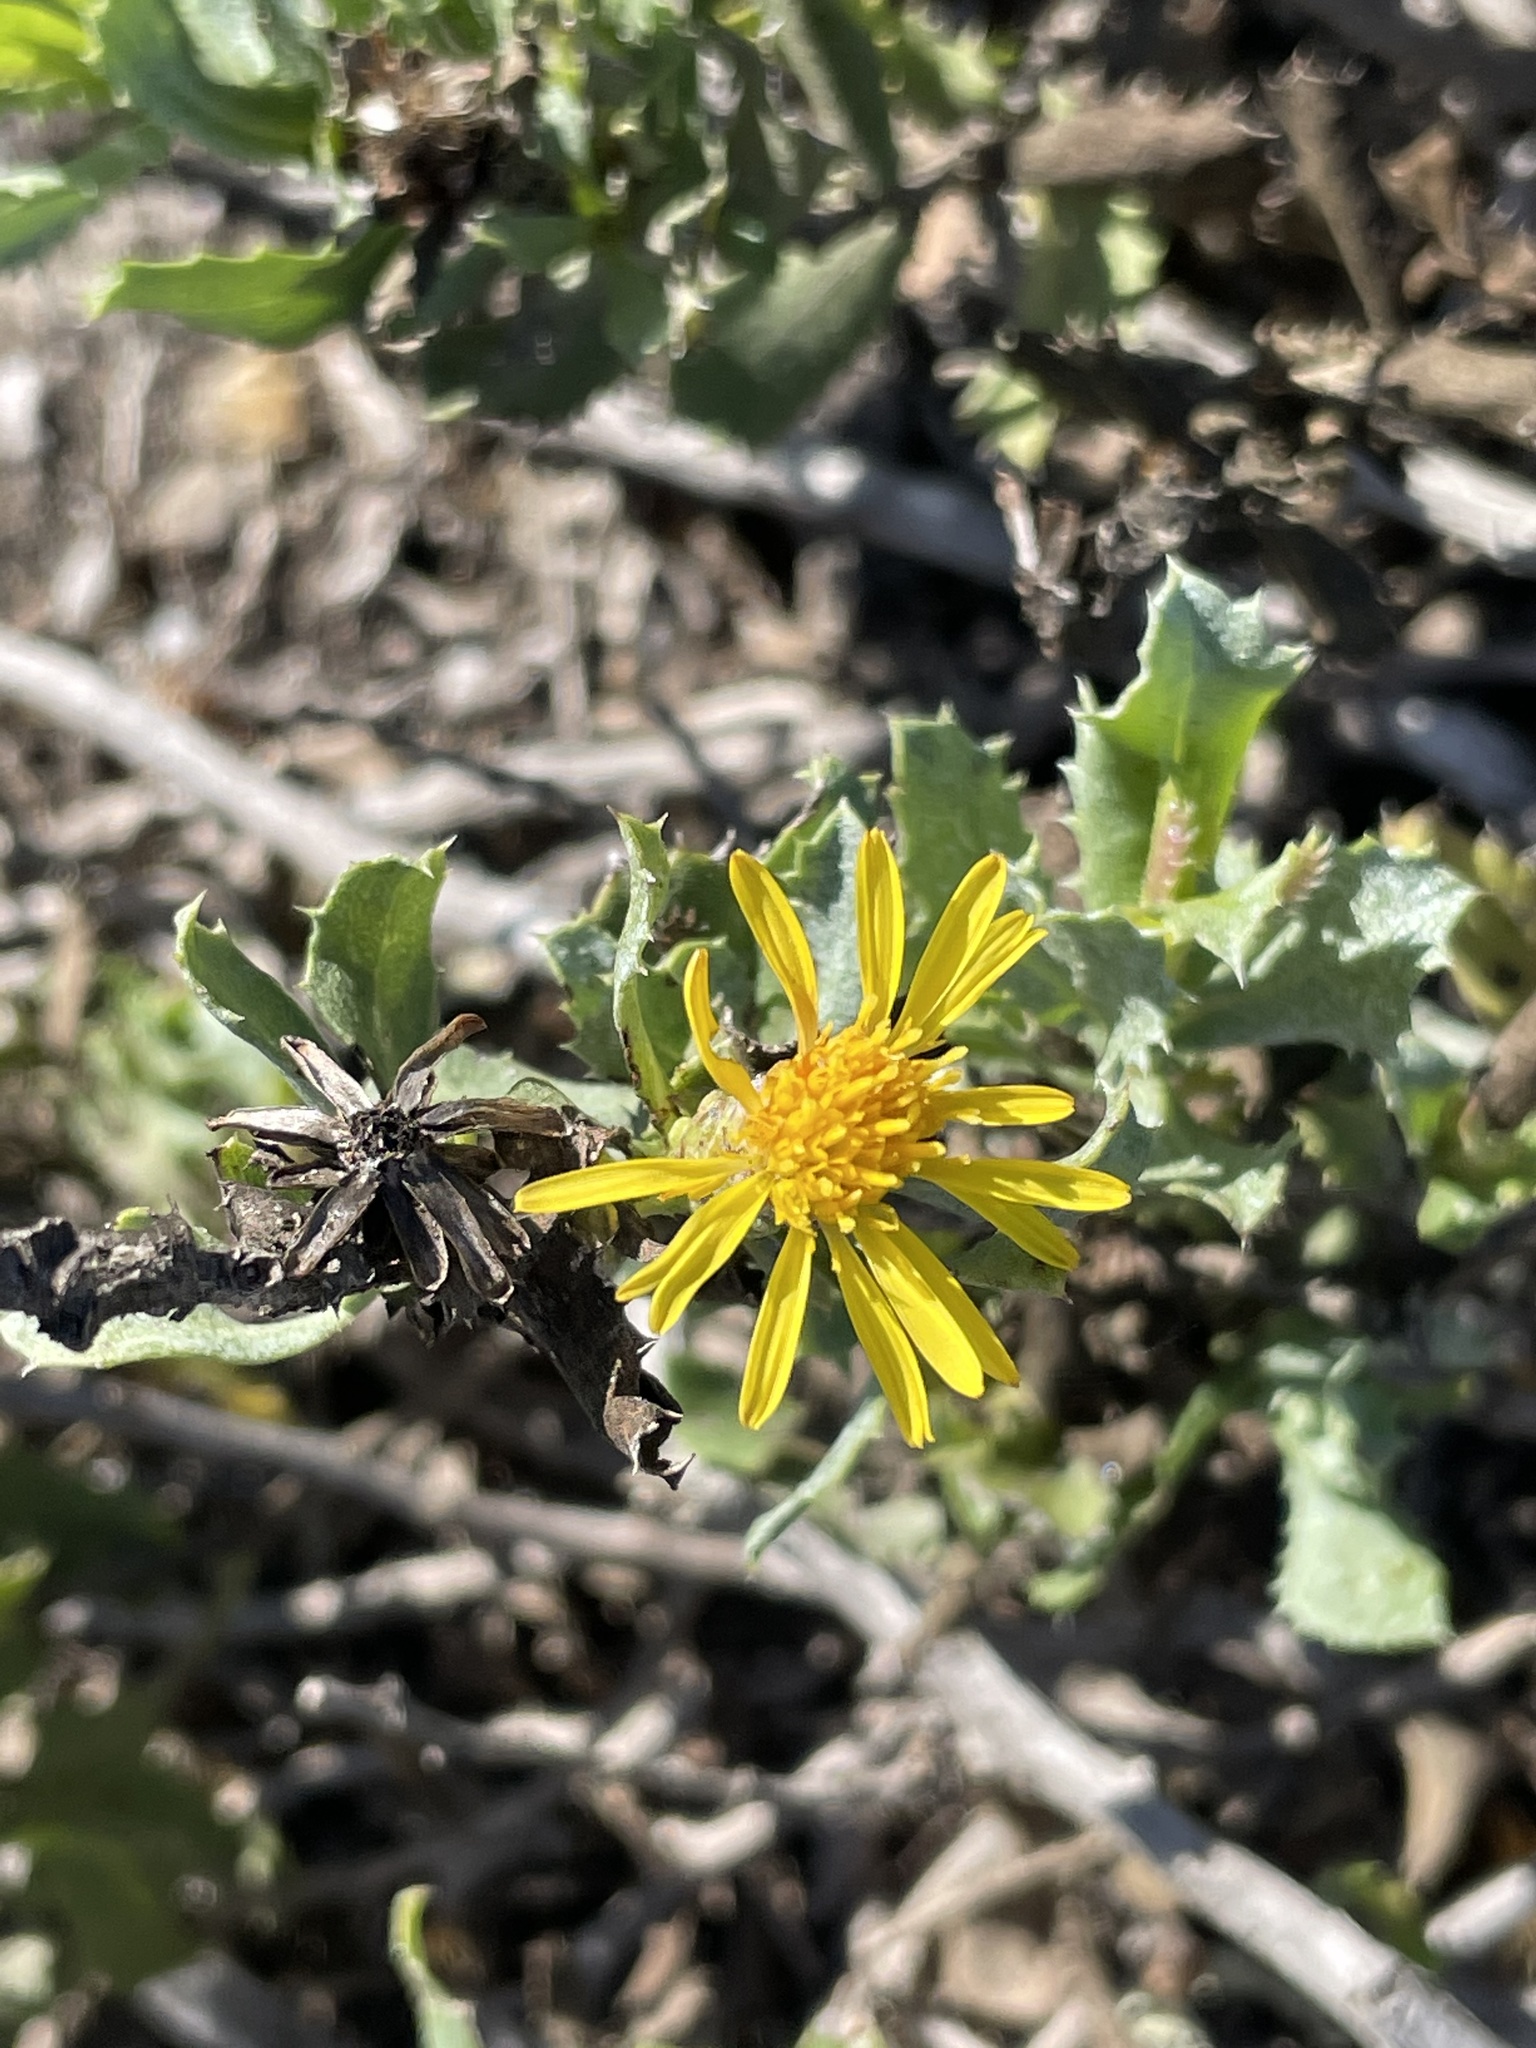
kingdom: Plantae
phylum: Tracheophyta
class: Magnoliopsida
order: Asterales
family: Asteraceae
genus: Hazardia
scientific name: Hazardia berberidis
